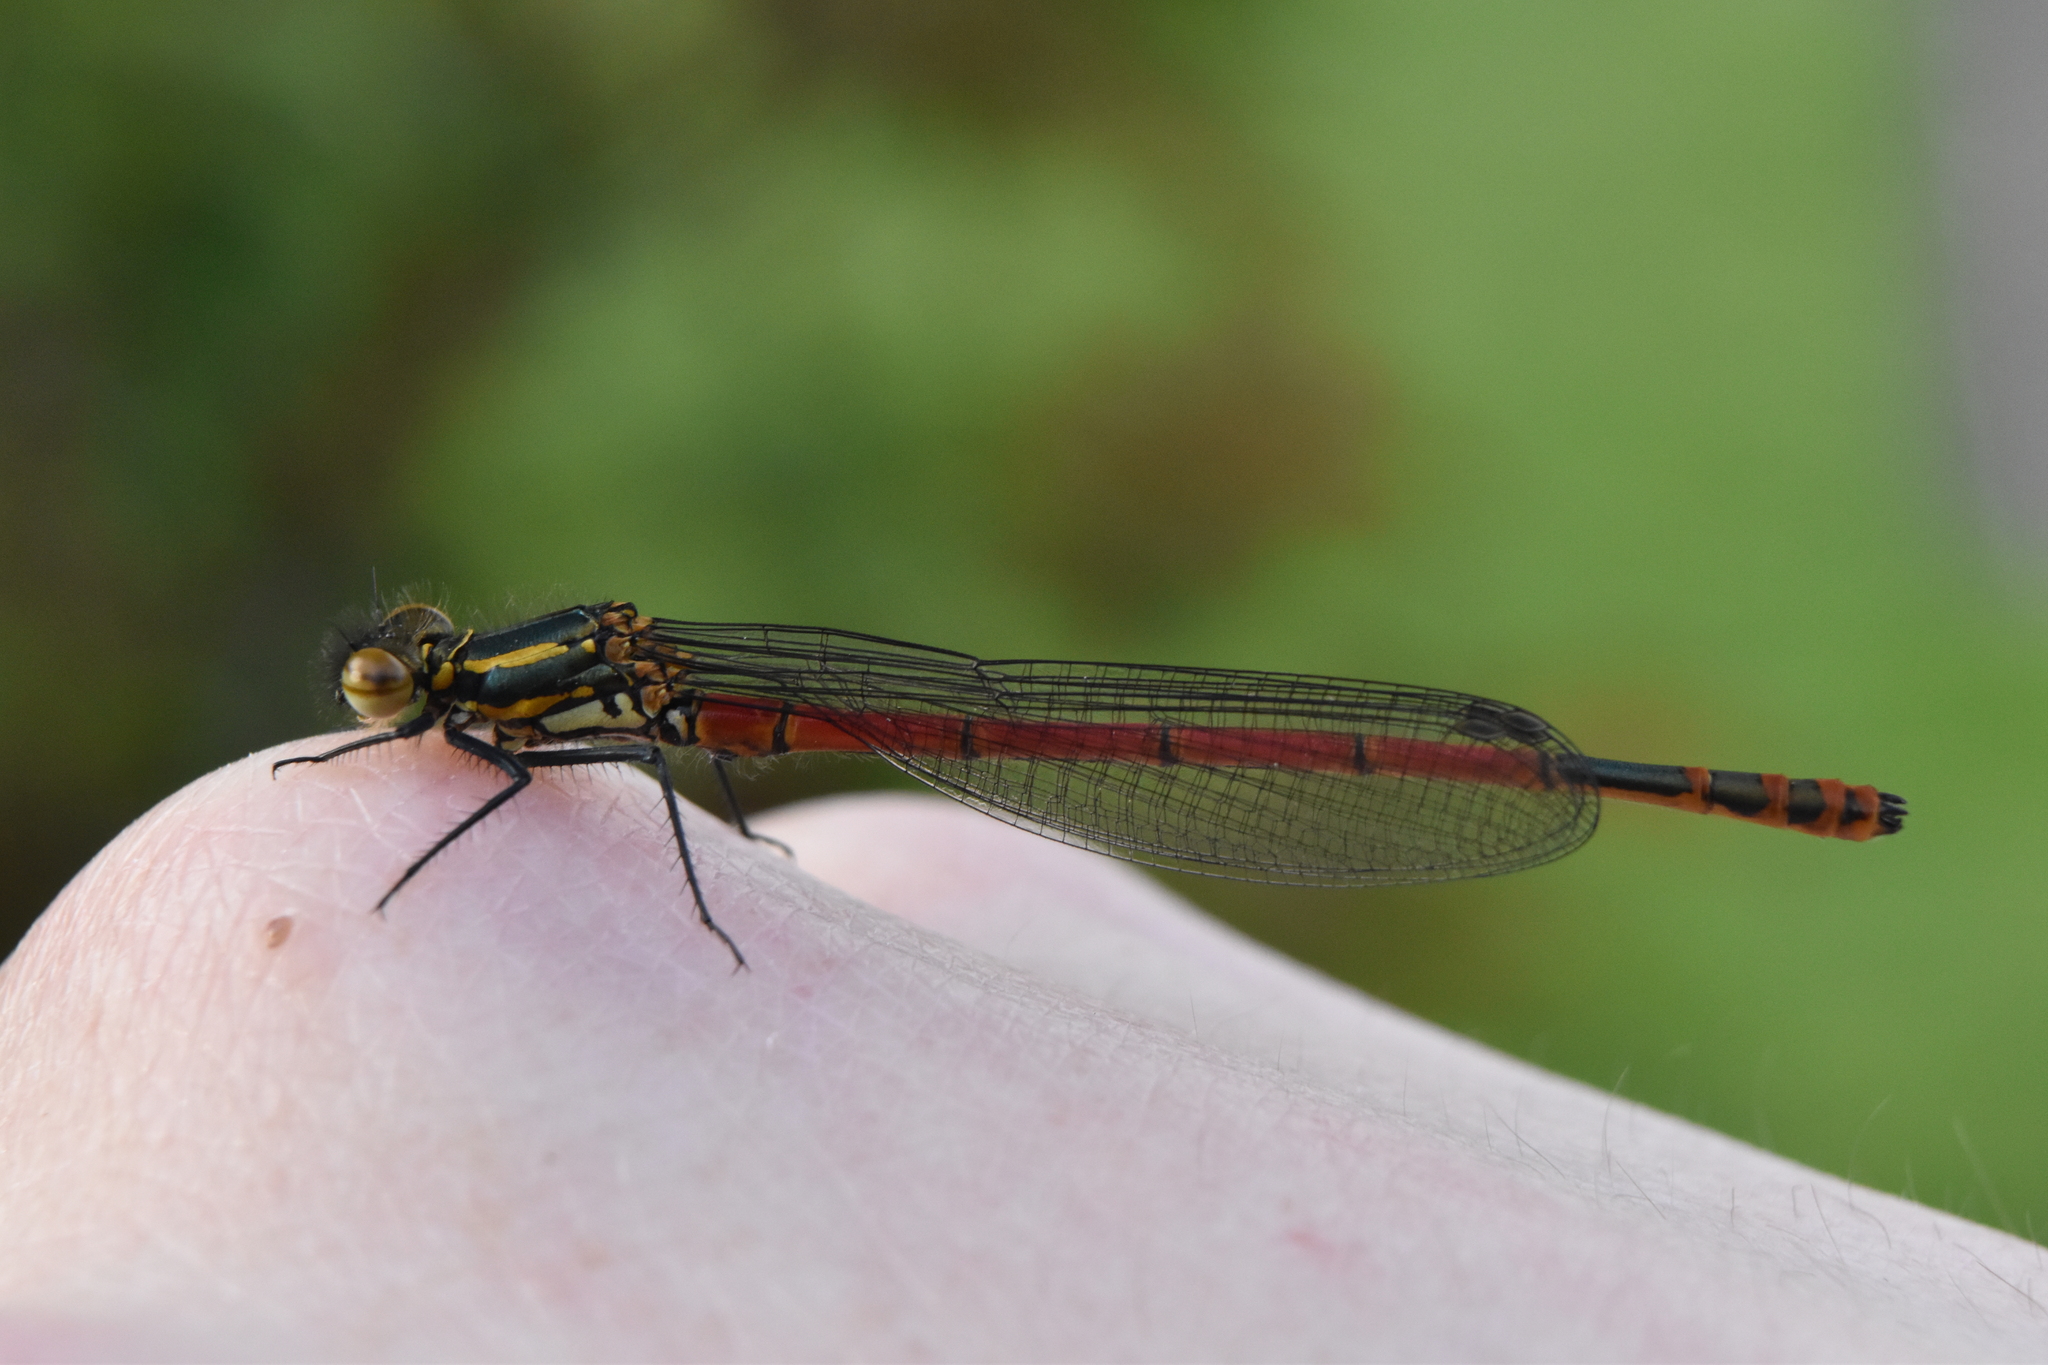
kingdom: Animalia
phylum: Arthropoda
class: Insecta
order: Odonata
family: Coenagrionidae
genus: Pyrrhosoma
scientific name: Pyrrhosoma nymphula
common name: Large red damsel
